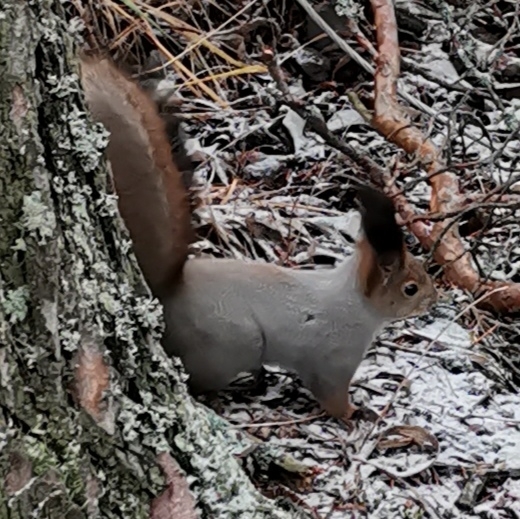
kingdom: Animalia
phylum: Chordata
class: Mammalia
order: Rodentia
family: Sciuridae
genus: Sciurus
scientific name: Sciurus vulgaris
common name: Eurasian red squirrel
